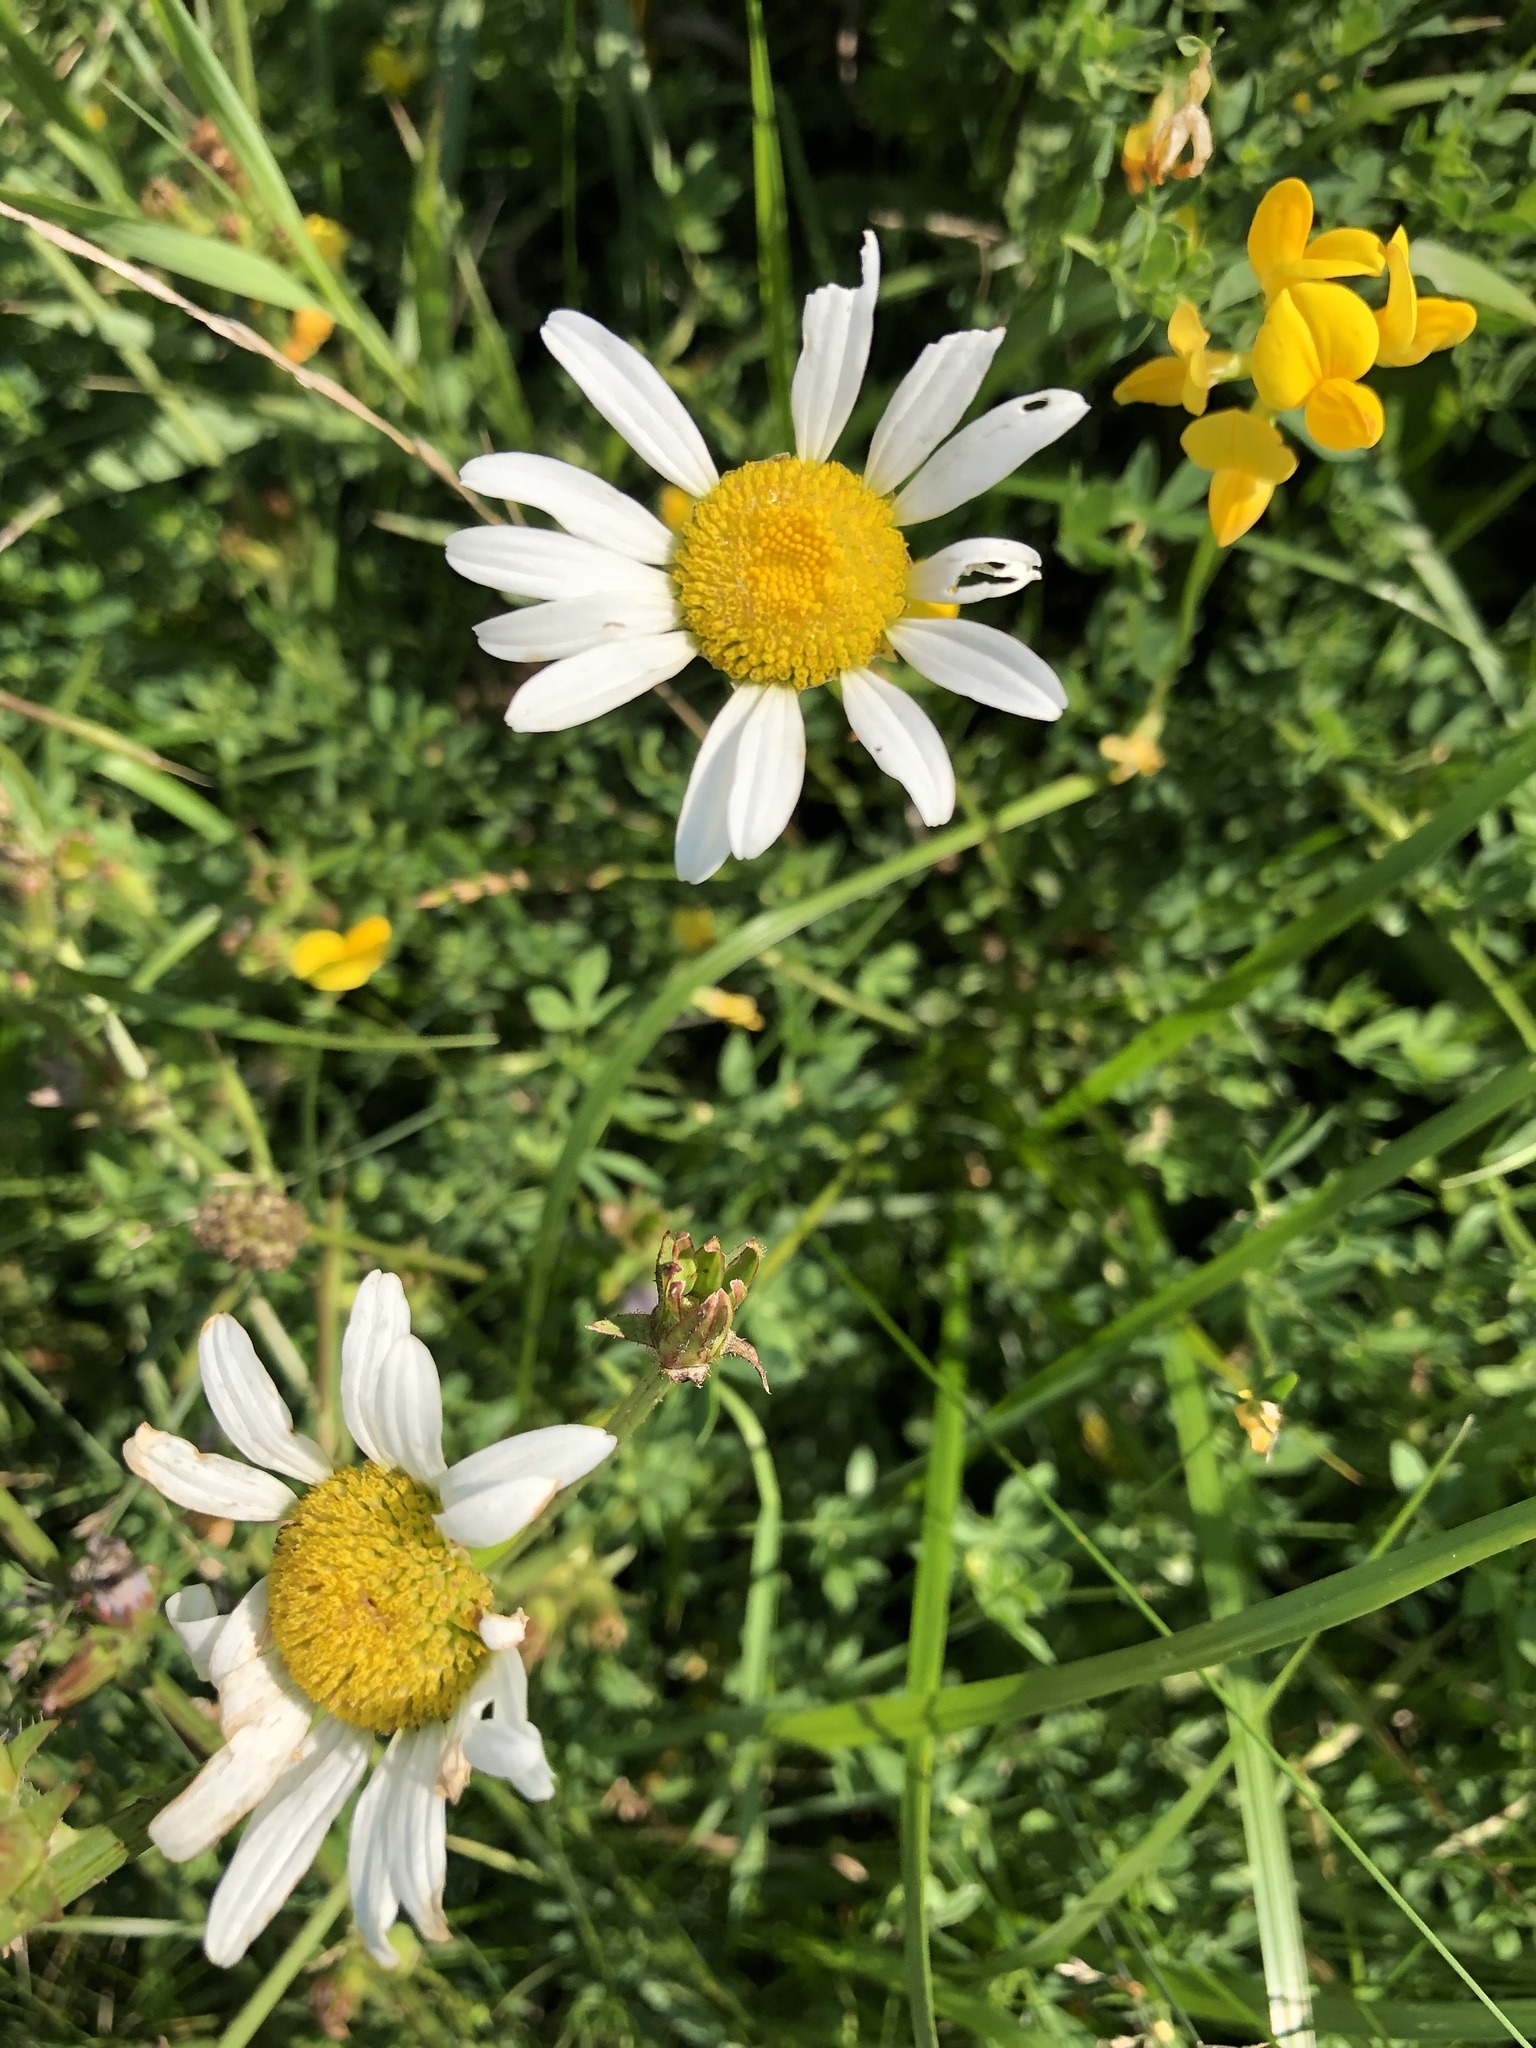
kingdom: Plantae
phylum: Tracheophyta
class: Magnoliopsida
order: Asterales
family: Asteraceae
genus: Leucanthemum
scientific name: Leucanthemum vulgare
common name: Oxeye daisy
